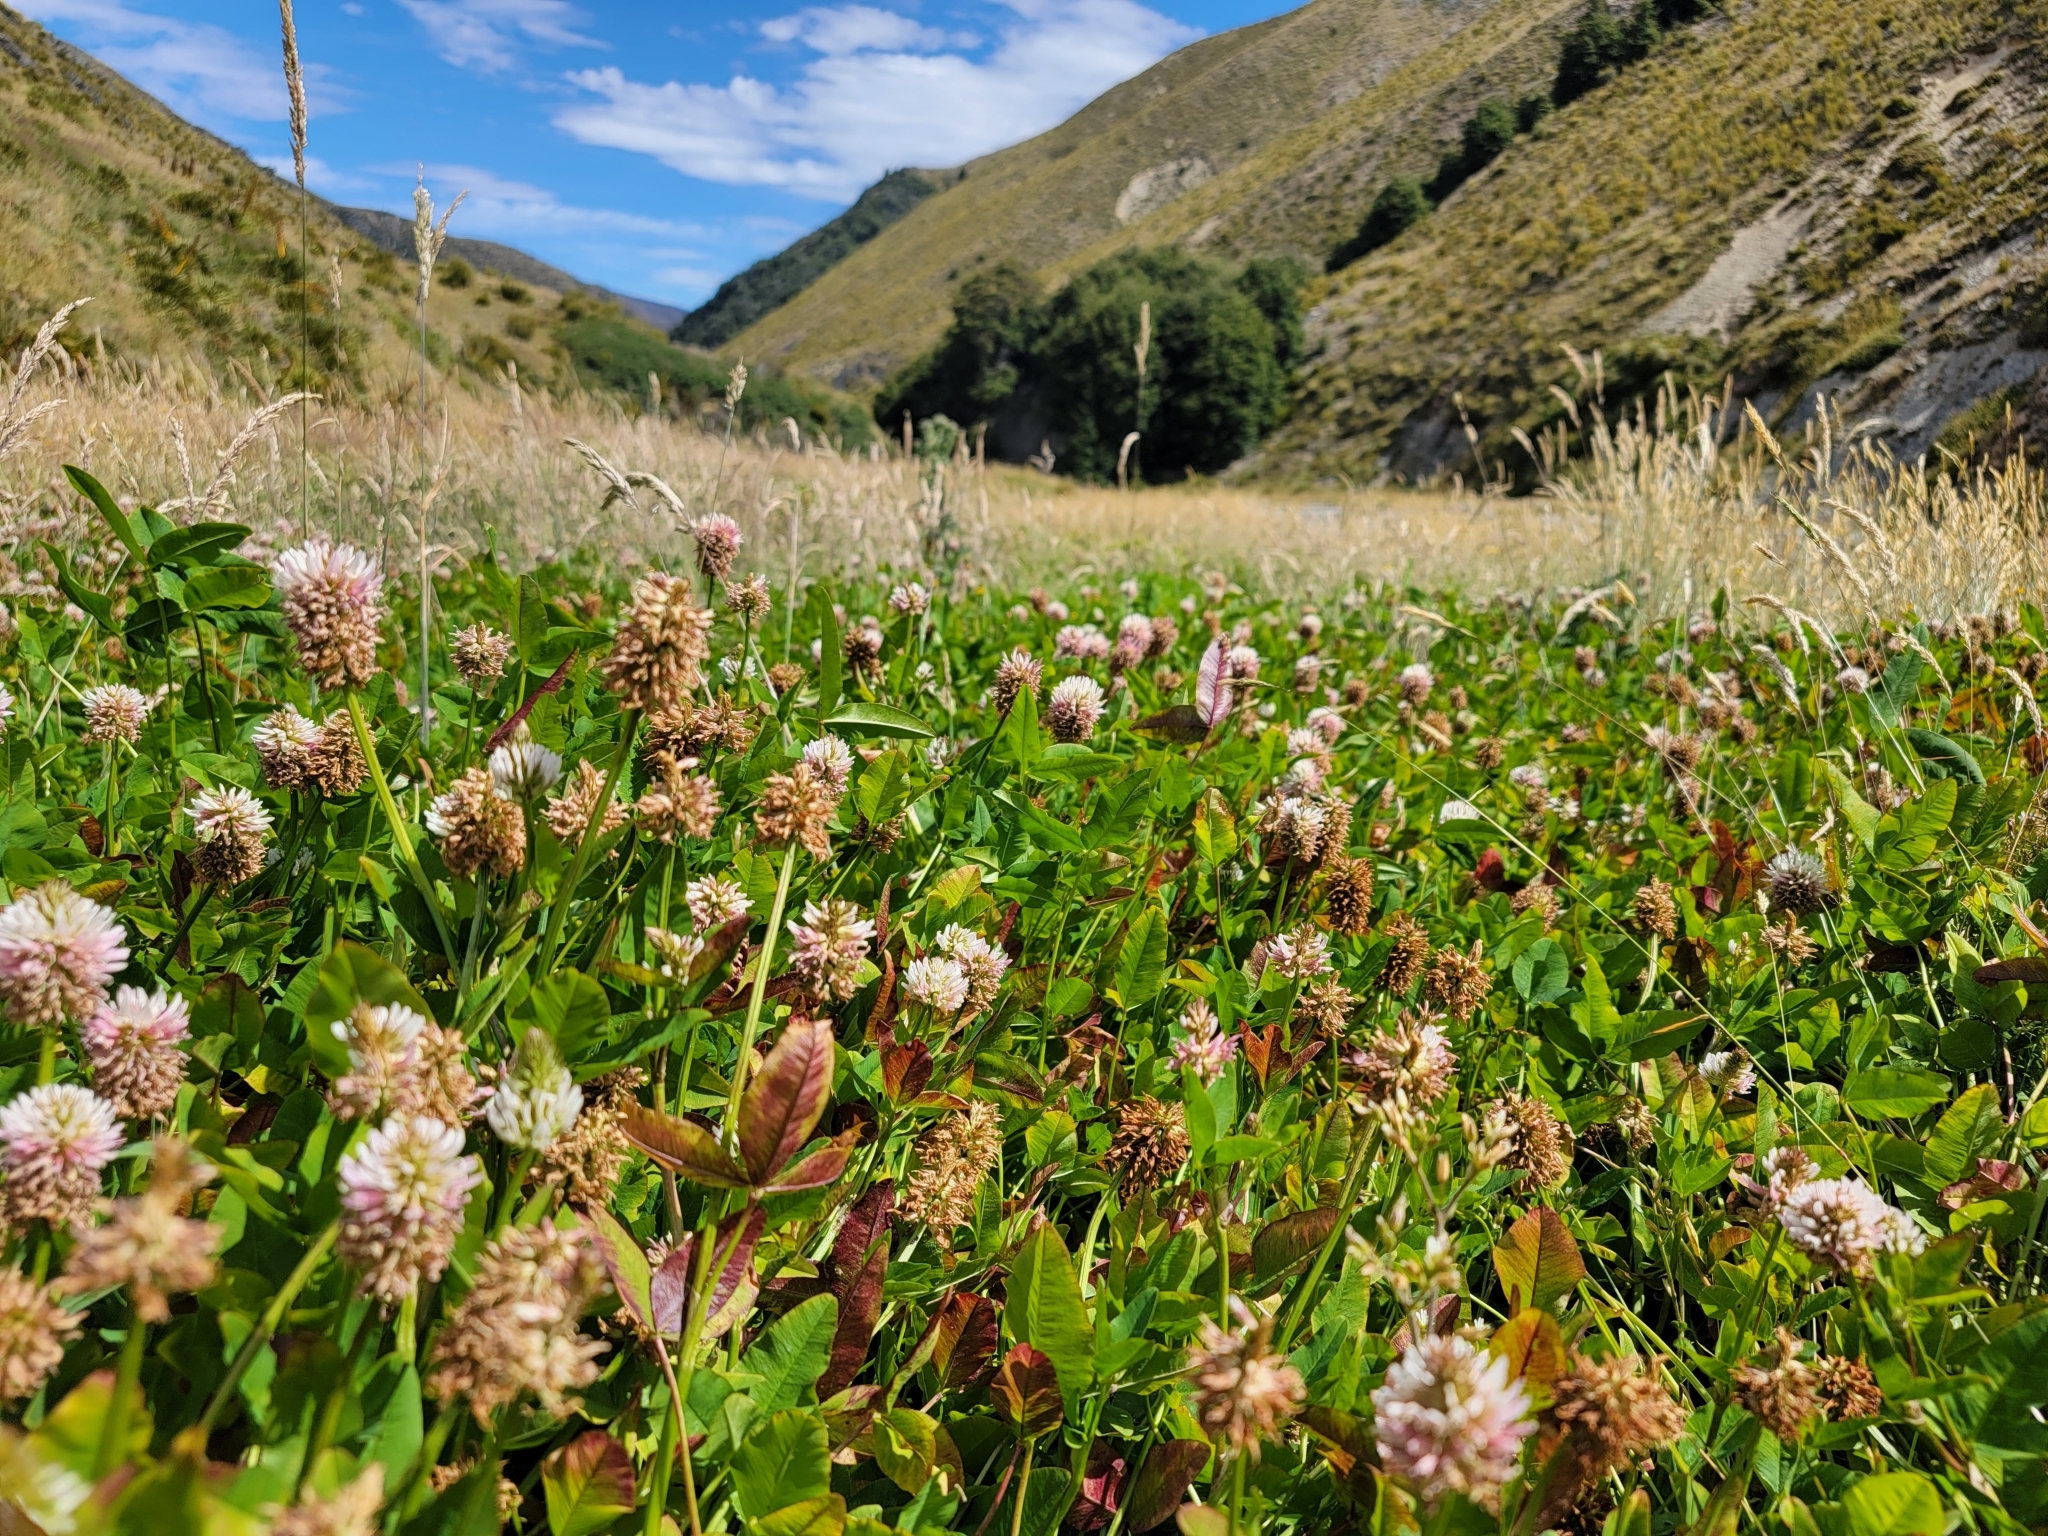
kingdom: Plantae
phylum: Tracheophyta
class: Magnoliopsida
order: Fabales
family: Fabaceae
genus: Trifolium
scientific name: Trifolium ambiguum
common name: Kura clover
